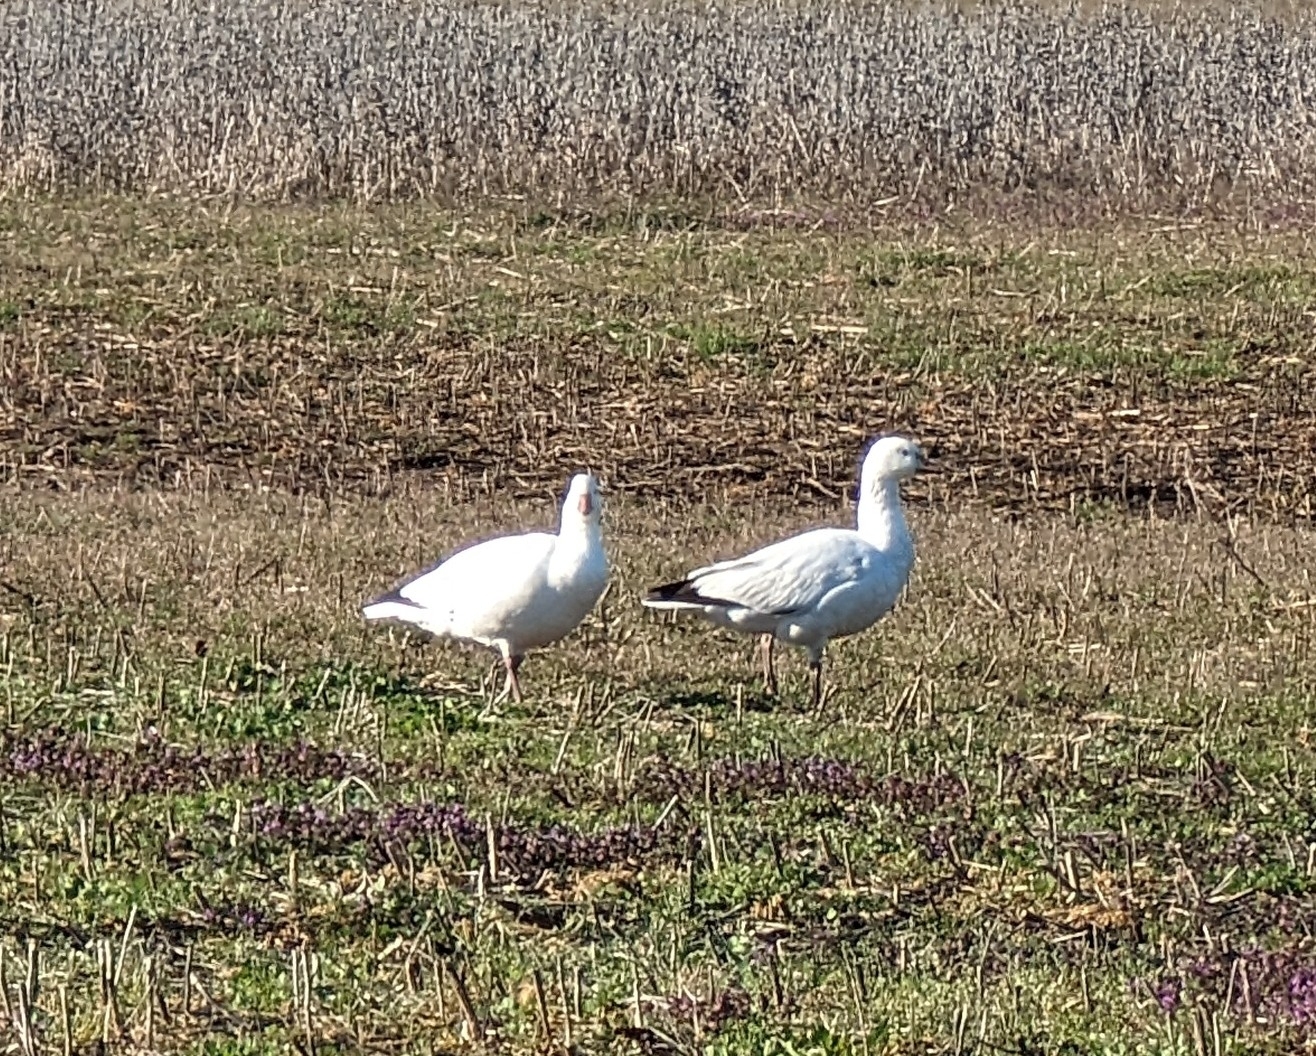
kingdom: Animalia
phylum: Chordata
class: Aves
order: Anseriformes
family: Anatidae
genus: Anser
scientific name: Anser rossii
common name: Ross's goose
